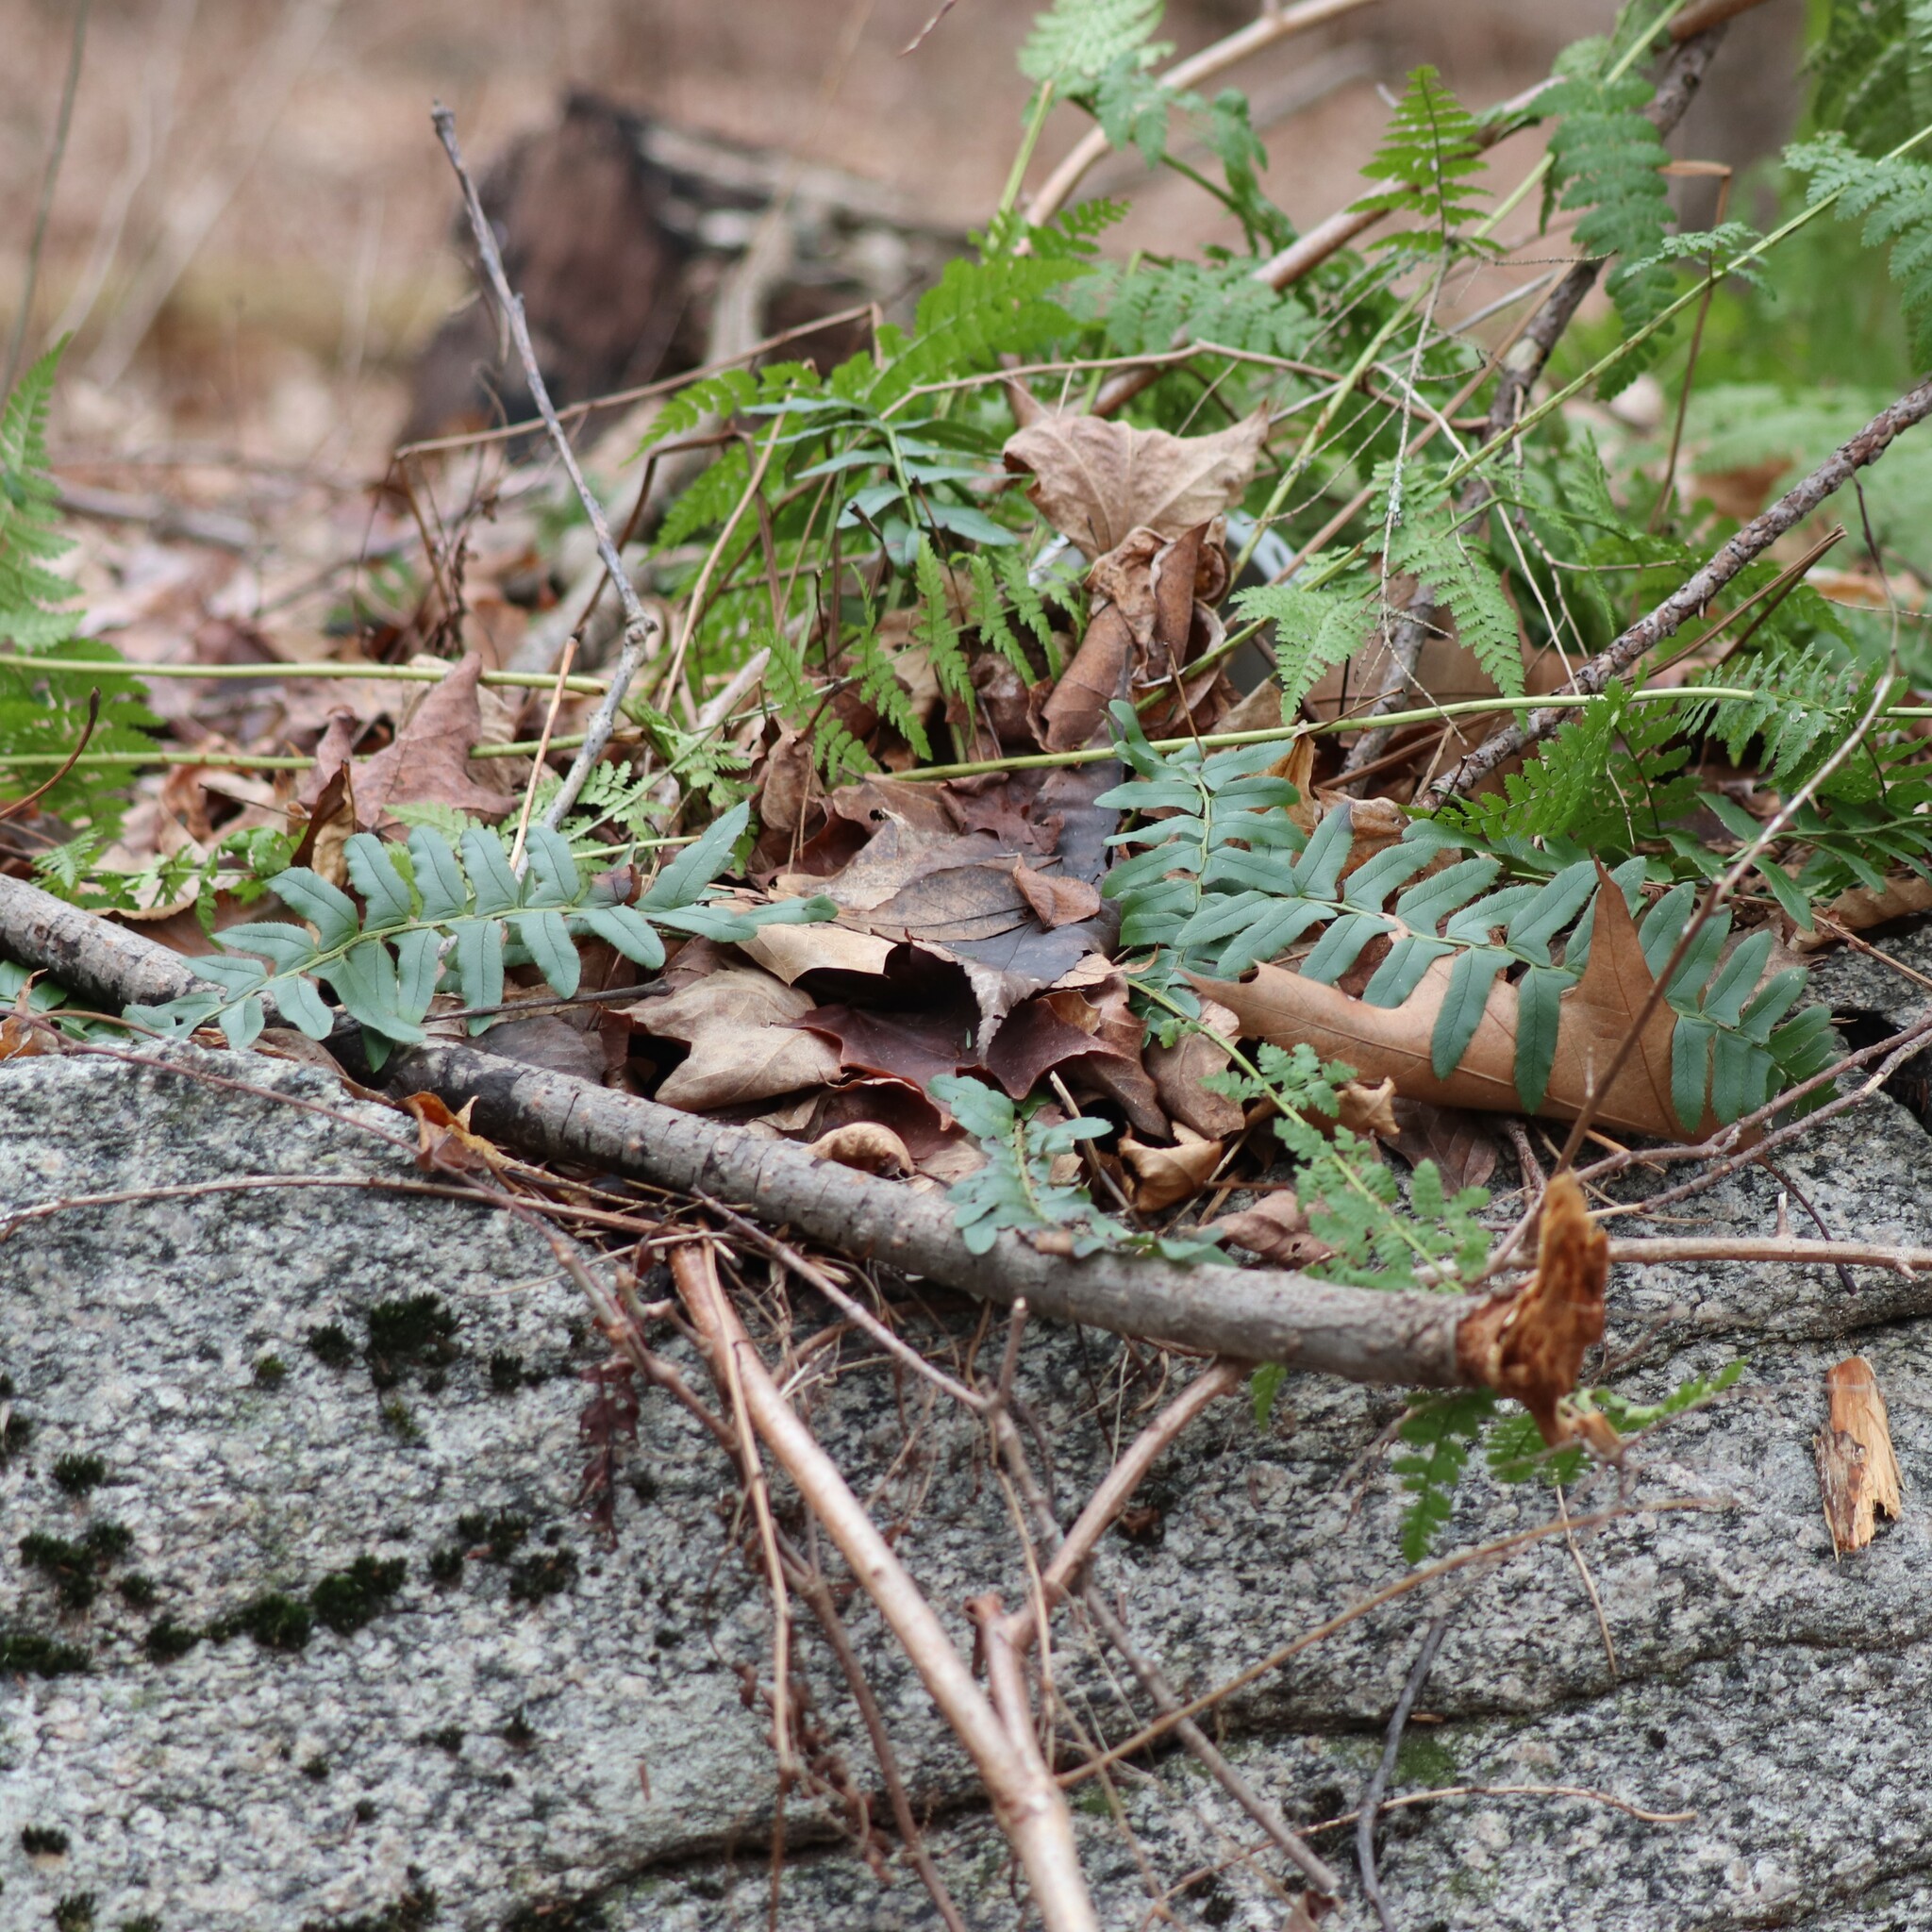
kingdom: Plantae
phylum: Tracheophyta
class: Polypodiopsida
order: Polypodiales
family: Dryopteridaceae
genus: Polystichum
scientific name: Polystichum acrostichoides
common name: Christmas fern
